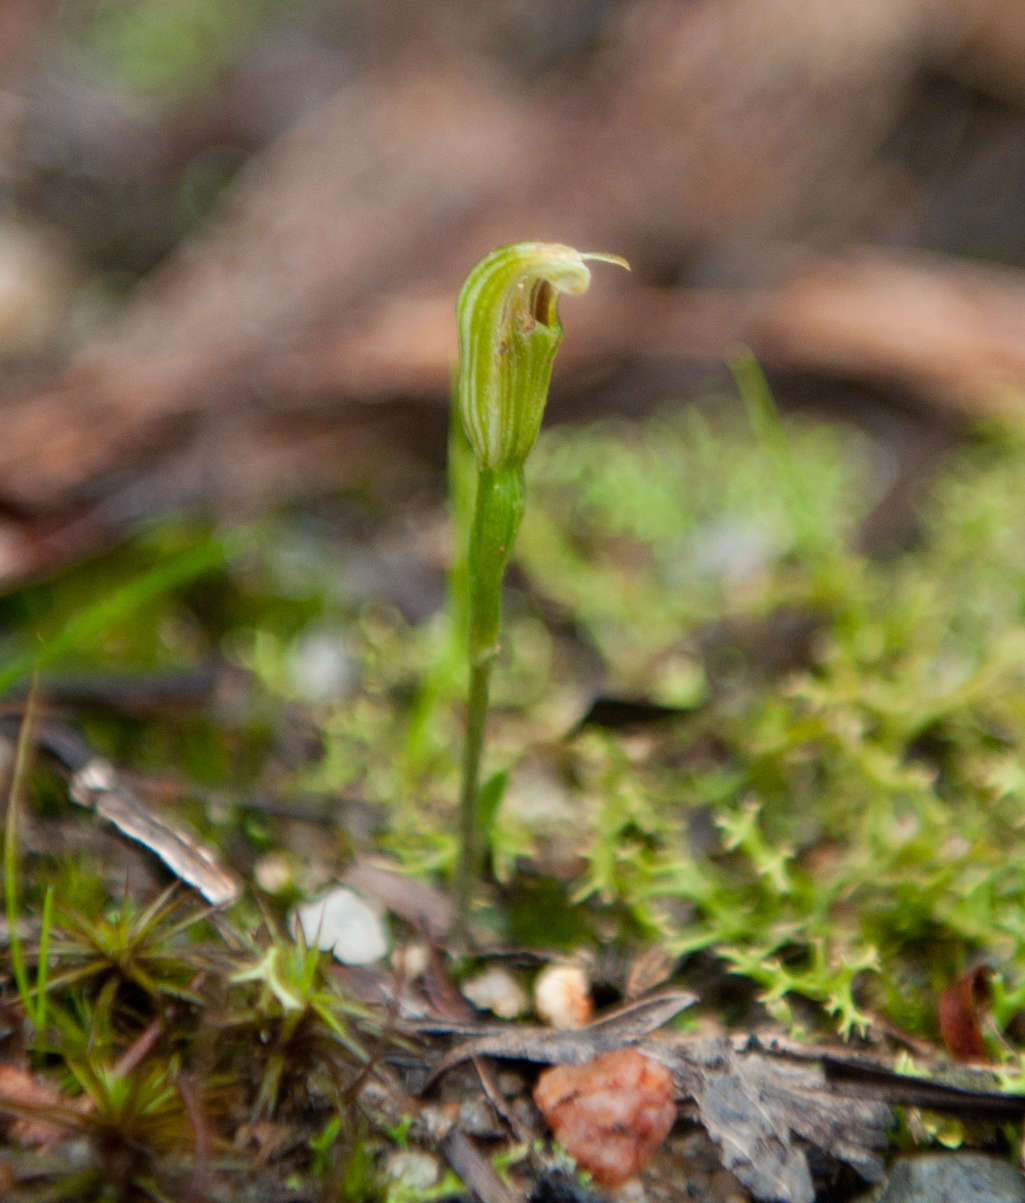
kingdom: Plantae
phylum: Tracheophyta
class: Liliopsida
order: Asparagales
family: Orchidaceae
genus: Pterostylis
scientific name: Pterostylis parviflora
